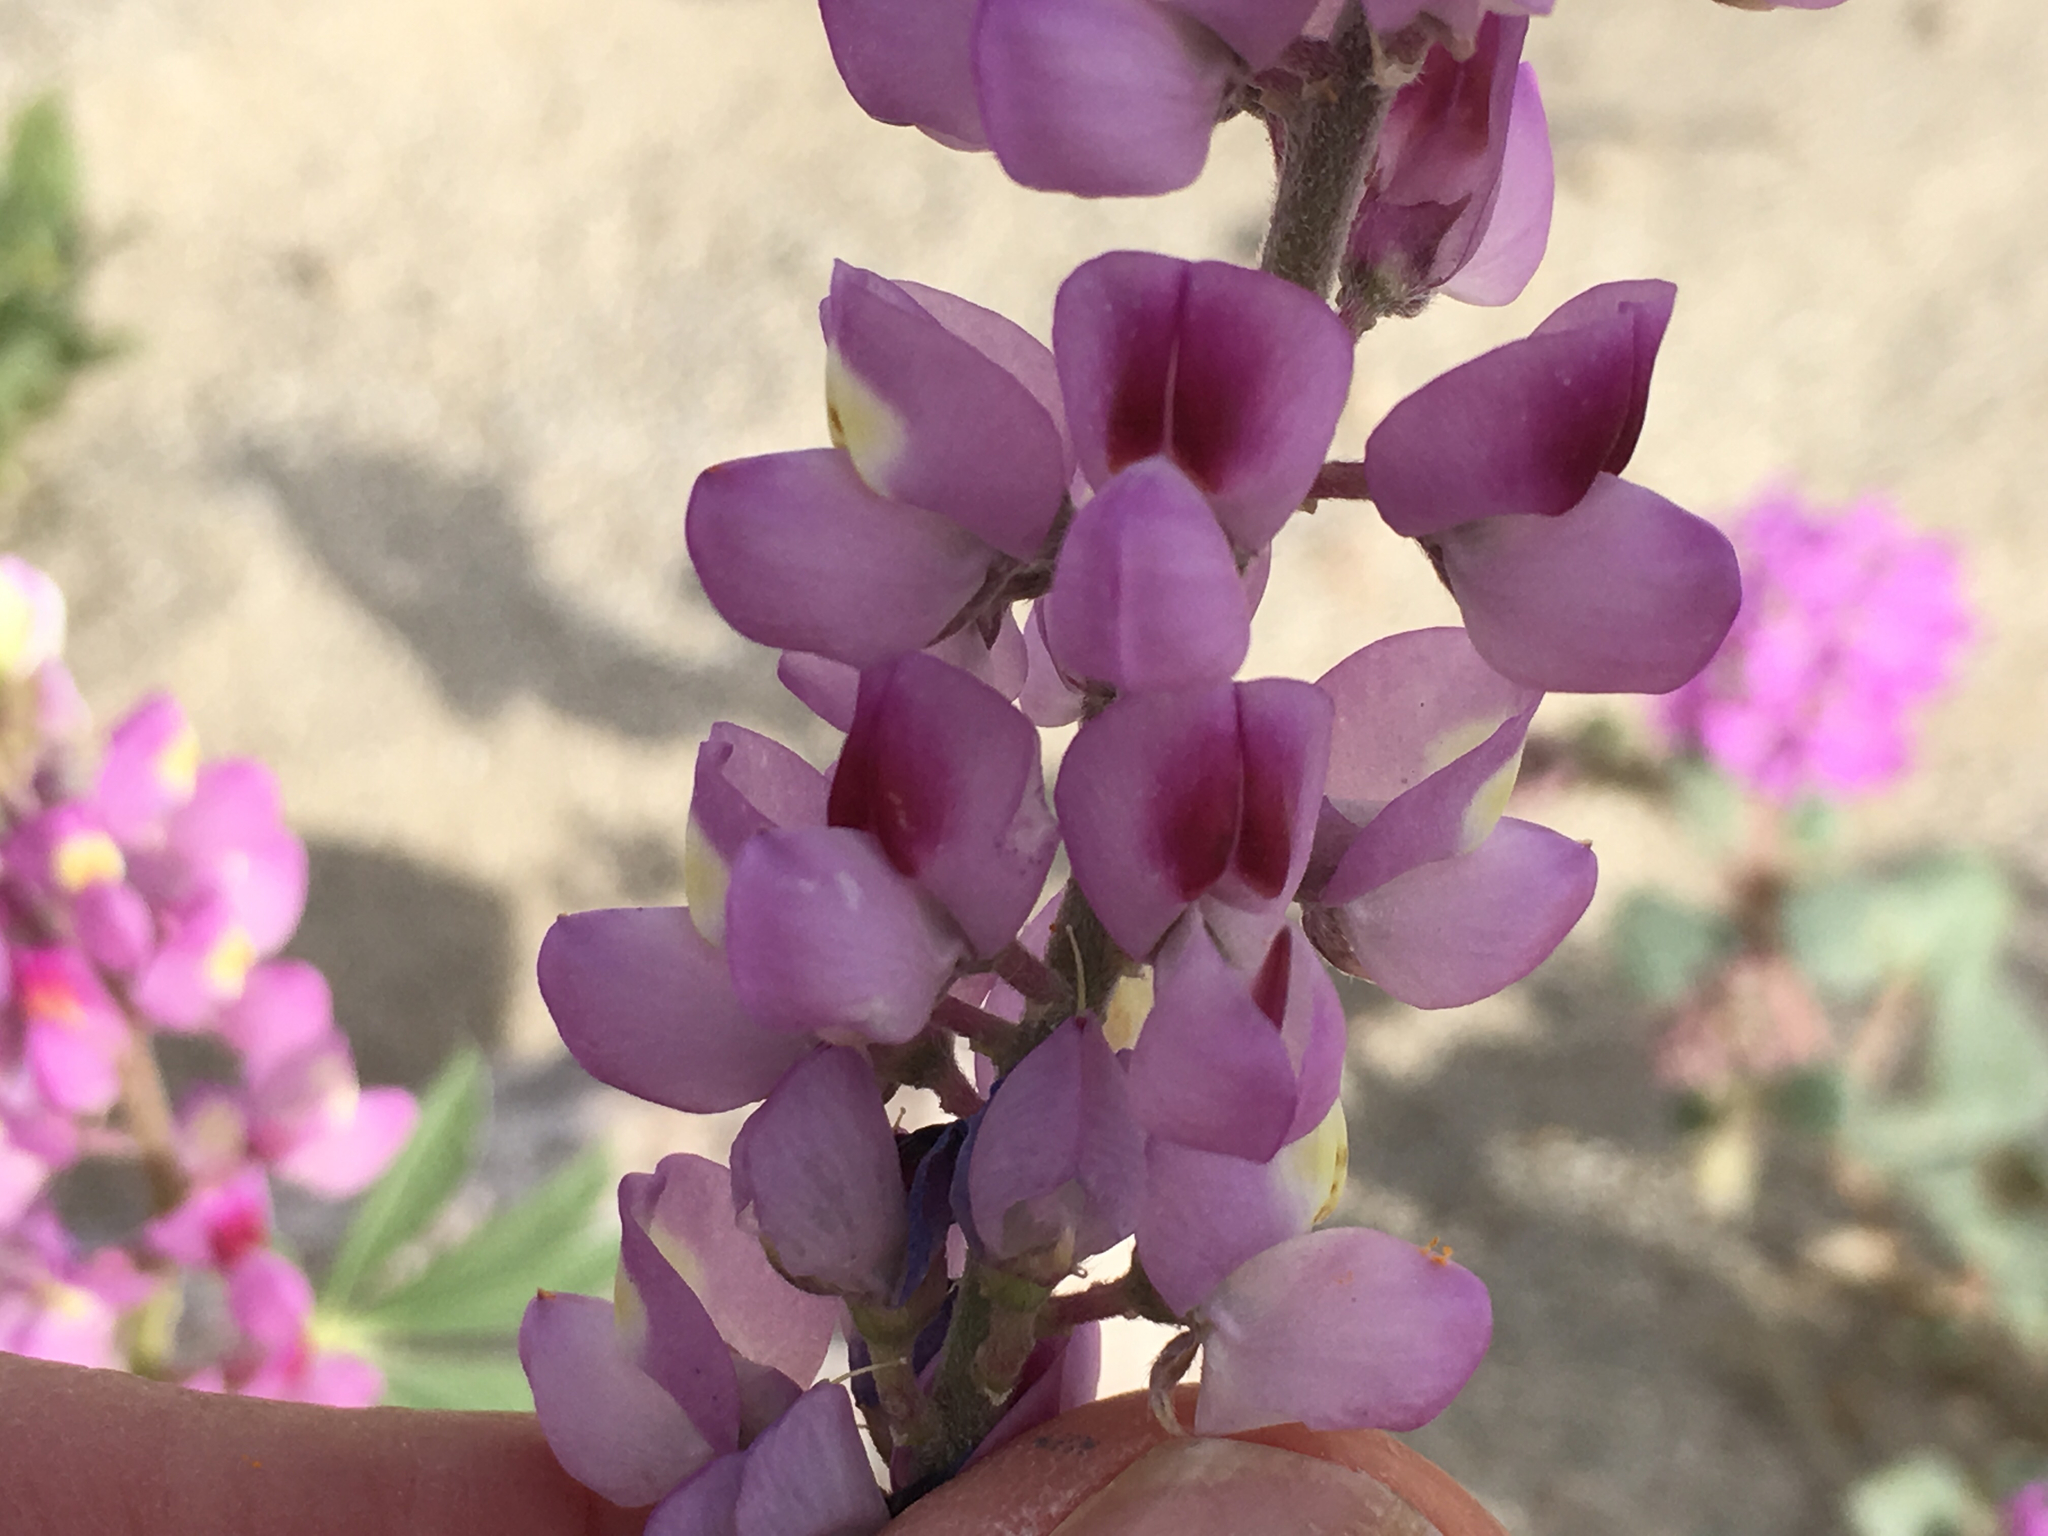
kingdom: Plantae
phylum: Tracheophyta
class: Magnoliopsida
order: Fabales
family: Fabaceae
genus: Lupinus
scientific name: Lupinus arizonicus
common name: Arizona lupine
